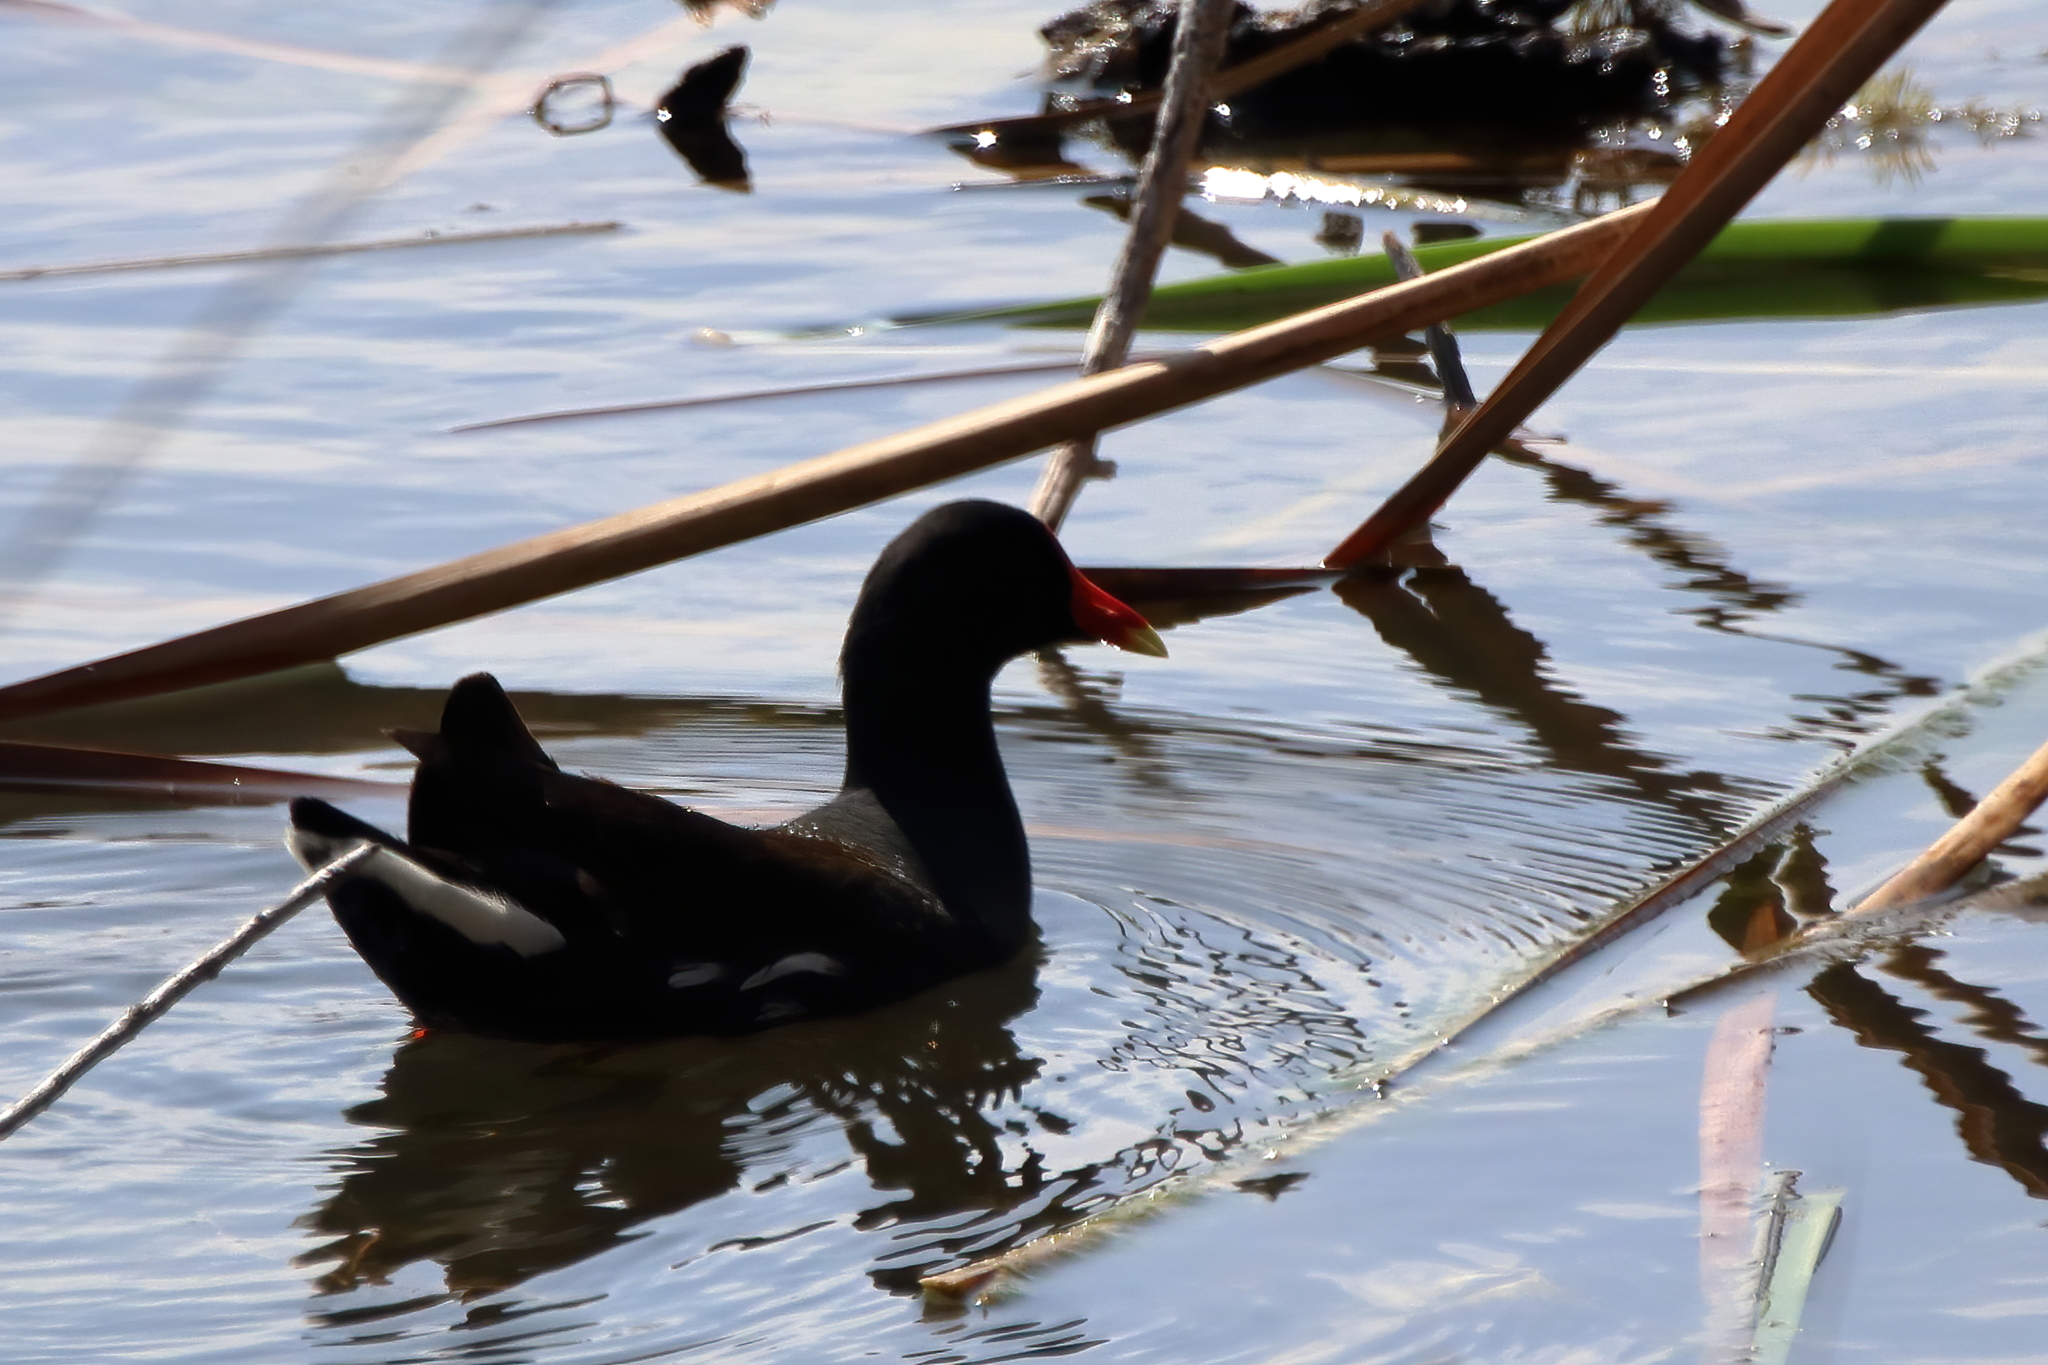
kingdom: Animalia
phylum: Chordata
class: Aves
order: Gruiformes
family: Rallidae
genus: Gallinula
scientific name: Gallinula chloropus
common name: Common moorhen
